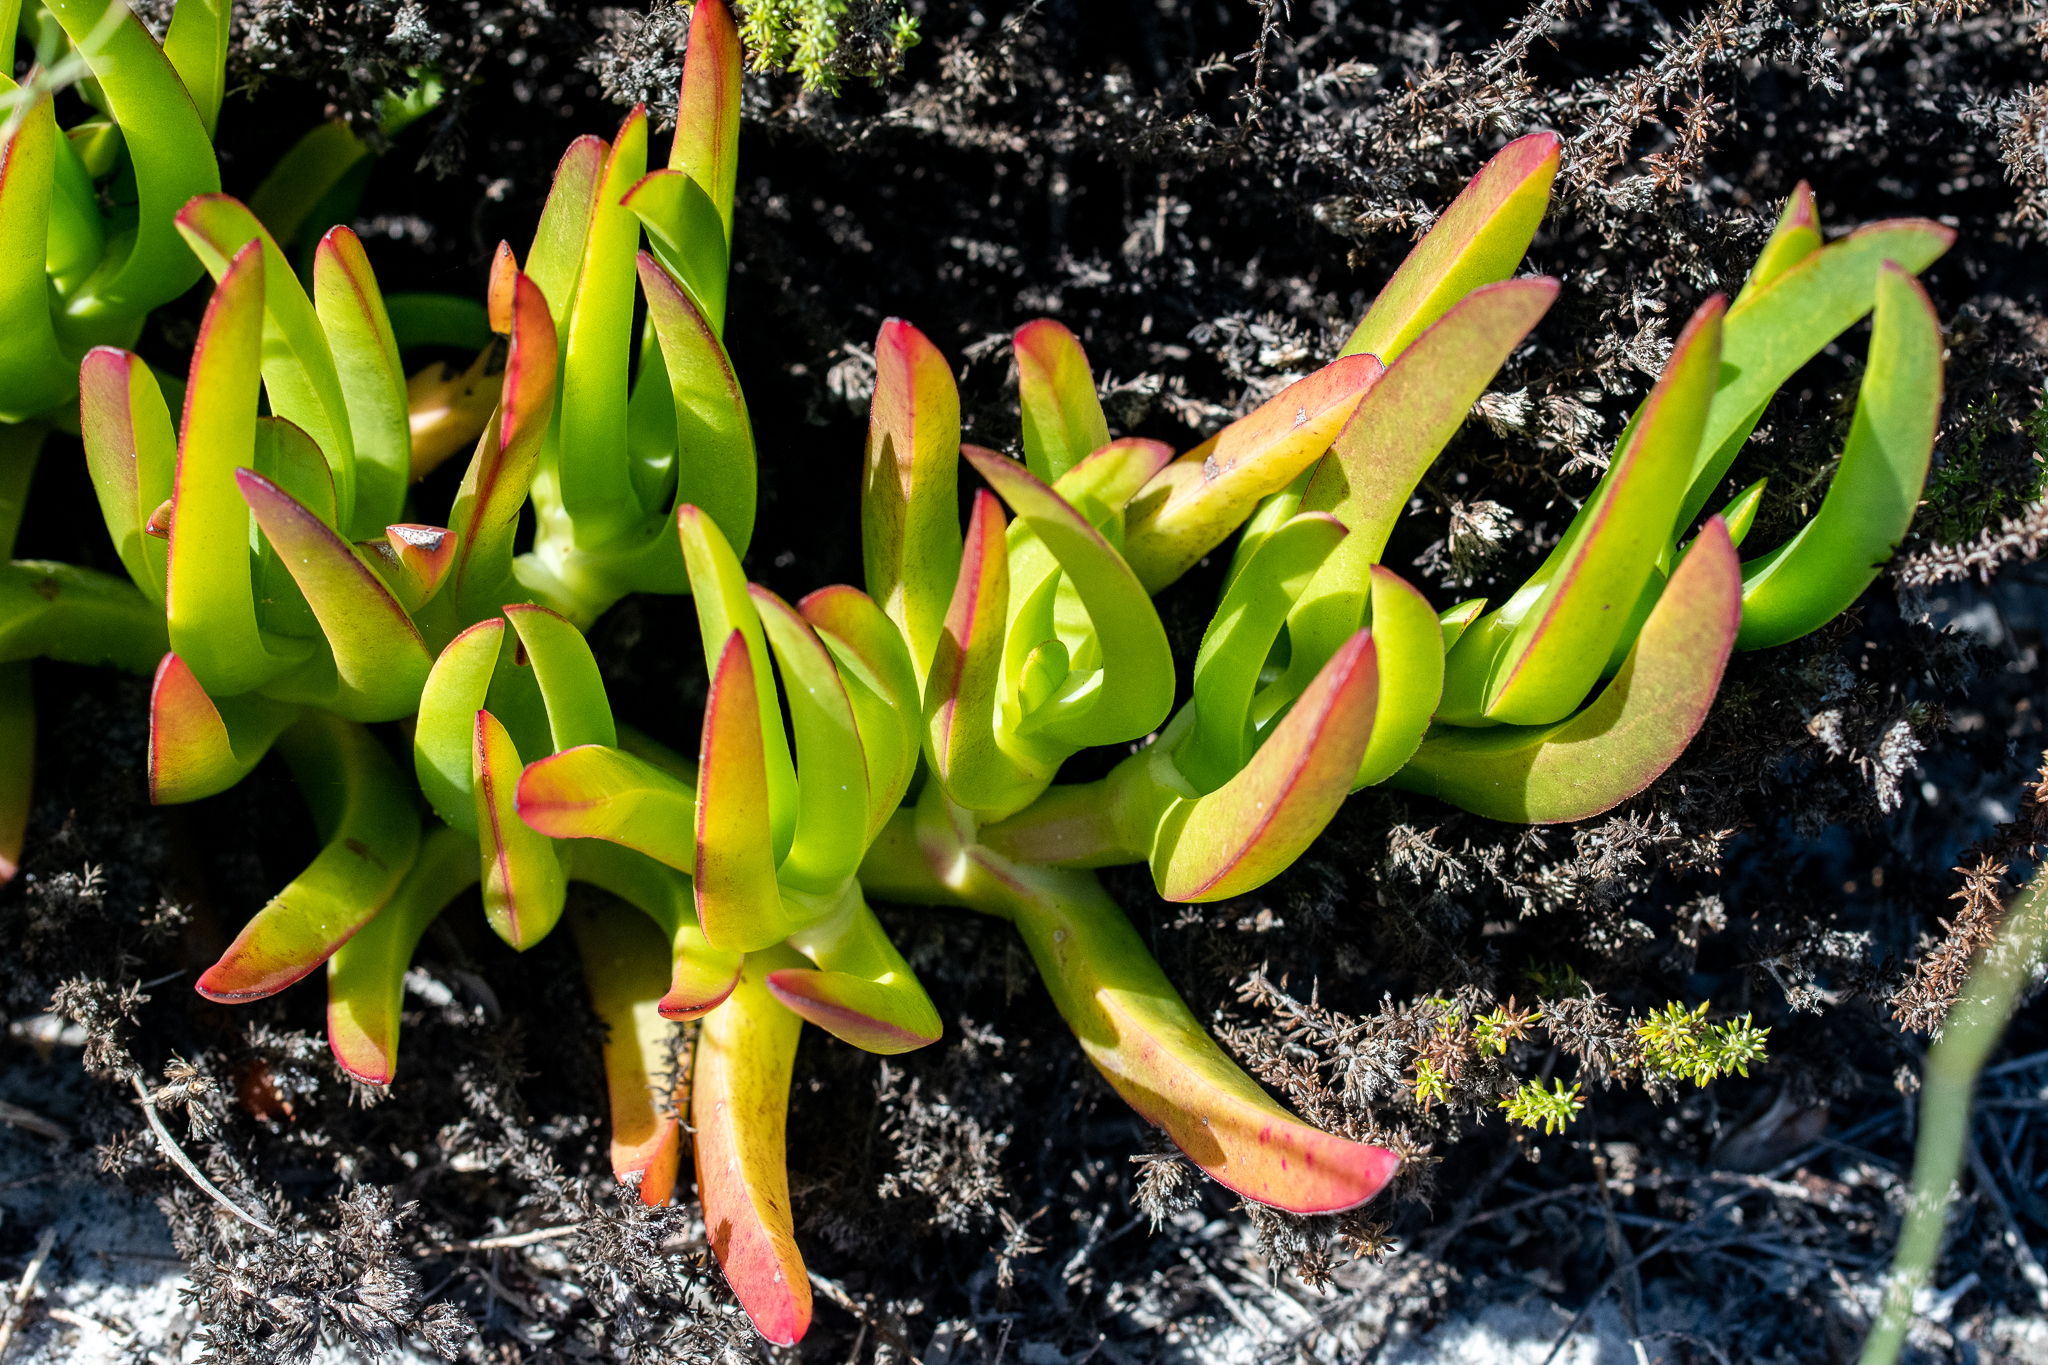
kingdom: Plantae
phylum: Tracheophyta
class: Magnoliopsida
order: Caryophyllales
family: Aizoaceae
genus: Carpobrotus
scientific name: Carpobrotus edulis
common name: Hottentot-fig
